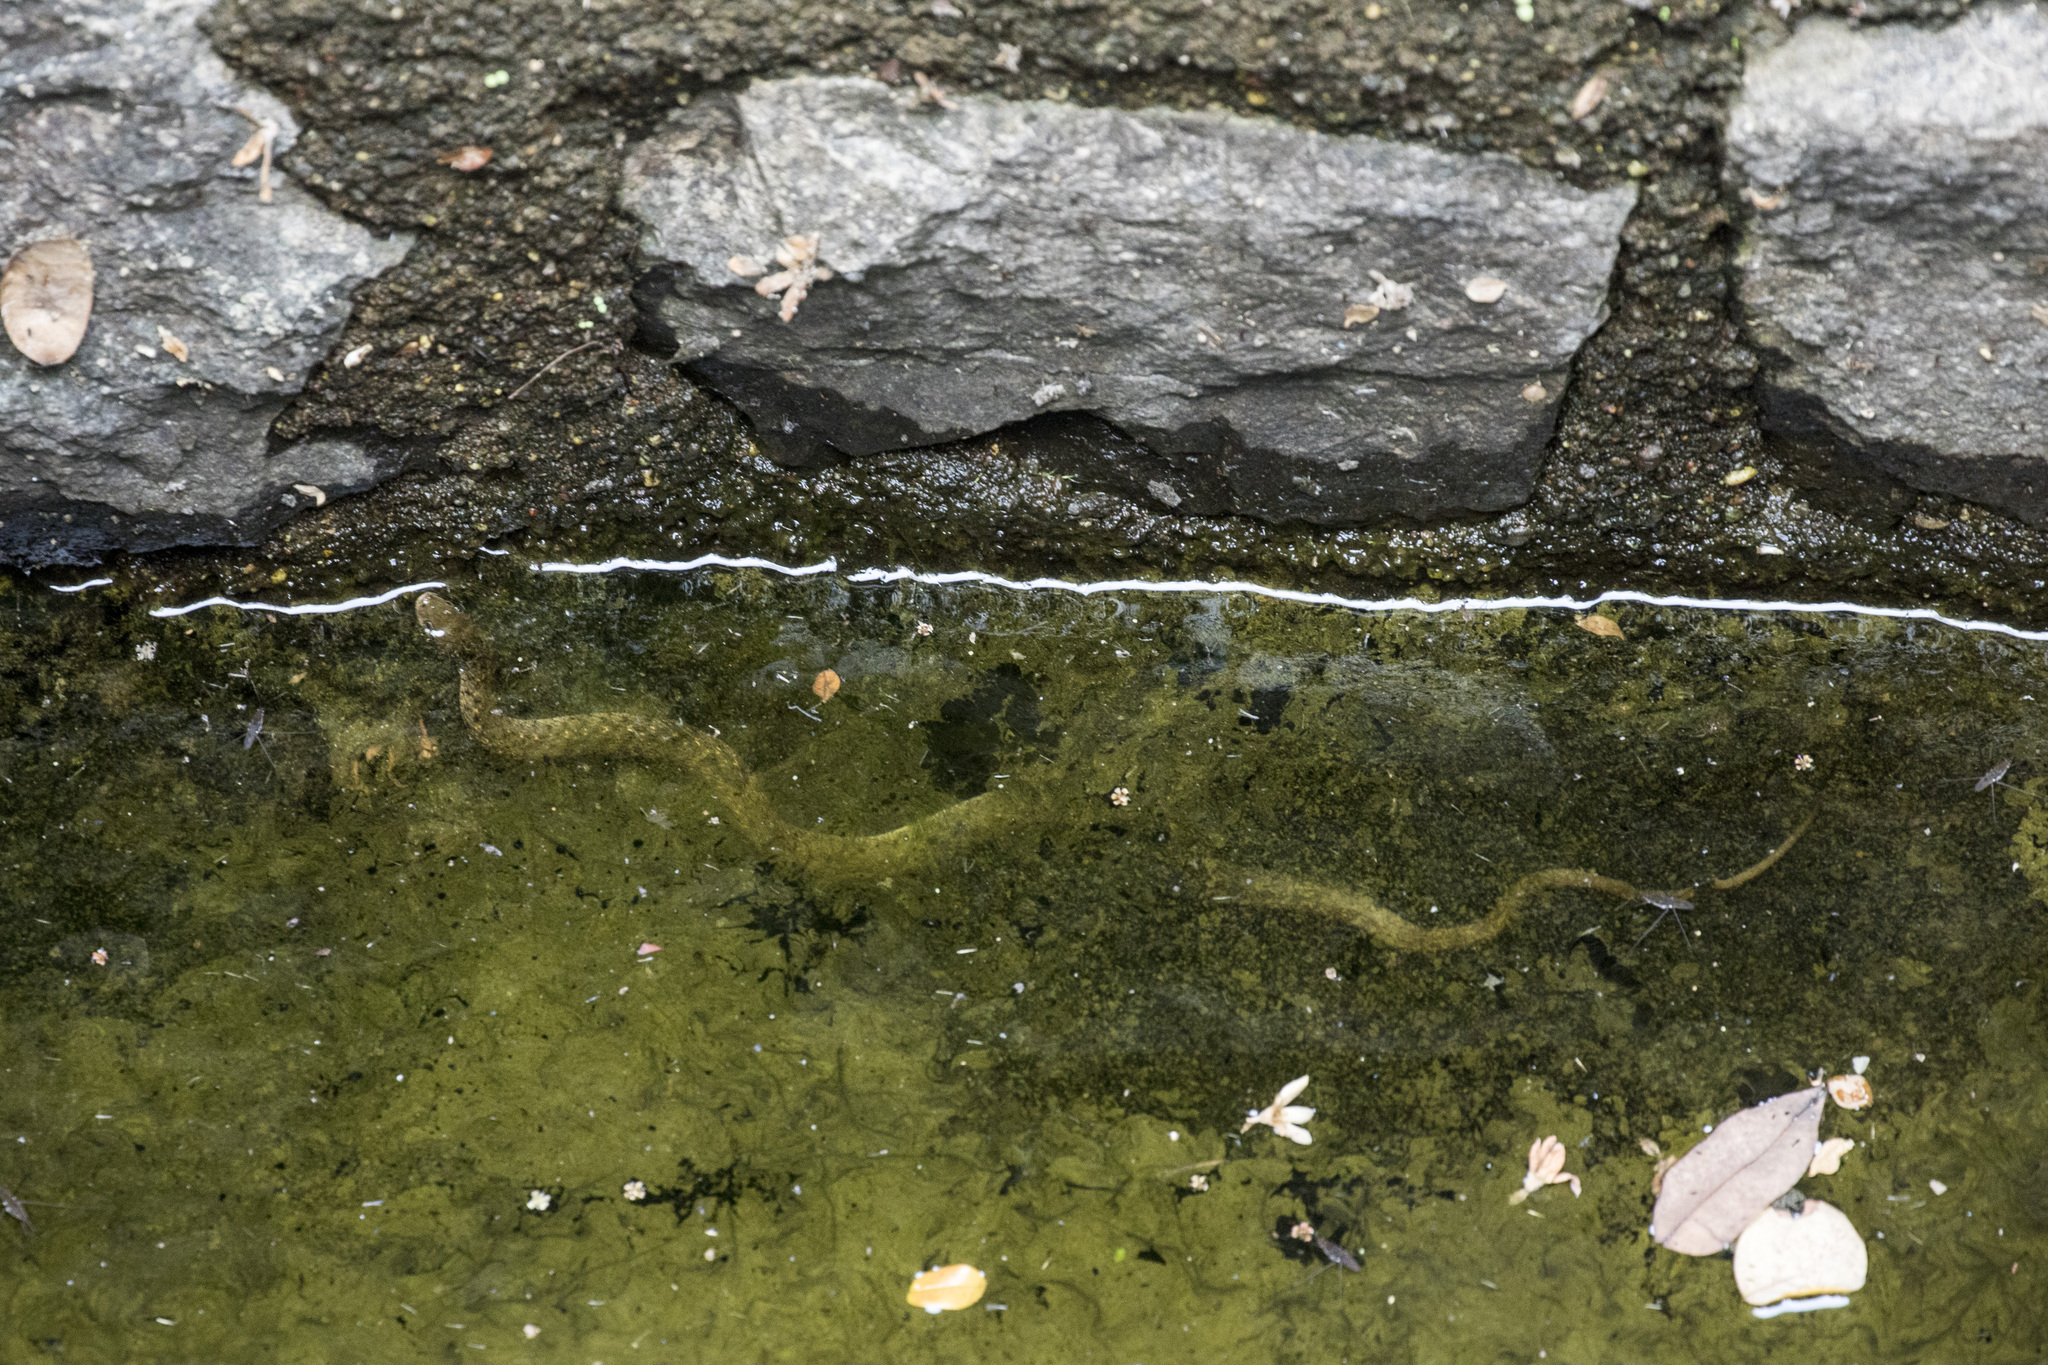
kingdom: Animalia
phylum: Chordata
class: Squamata
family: Colubridae
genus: Fowlea
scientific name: Fowlea piscator
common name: Asiatic water snake
